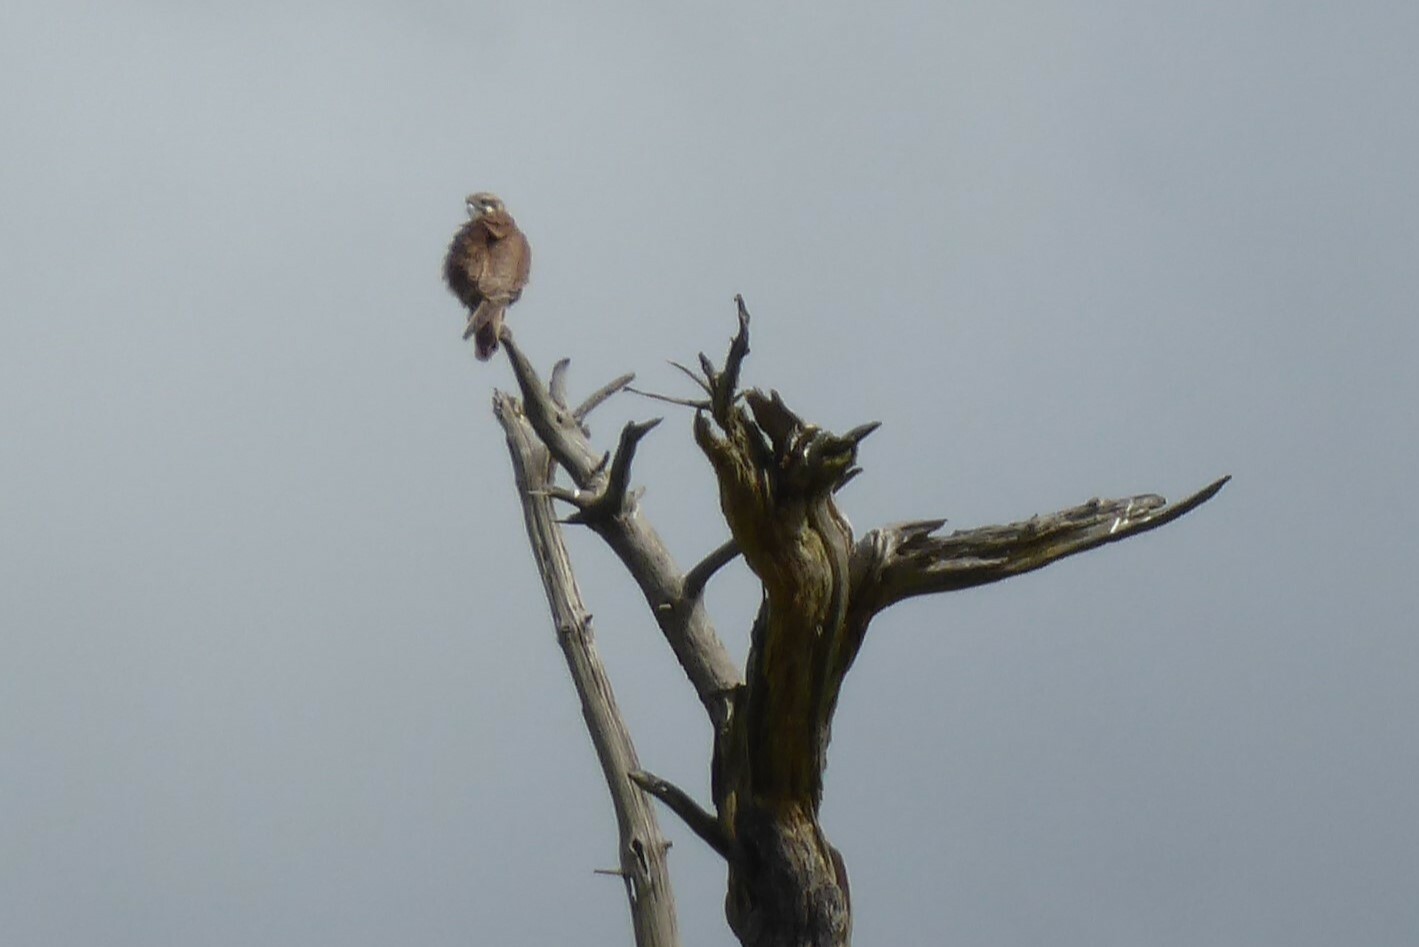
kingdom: Animalia
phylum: Chordata
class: Aves
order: Falconiformes
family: Falconidae
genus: Falco
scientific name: Falco berigora
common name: Brown falcon
